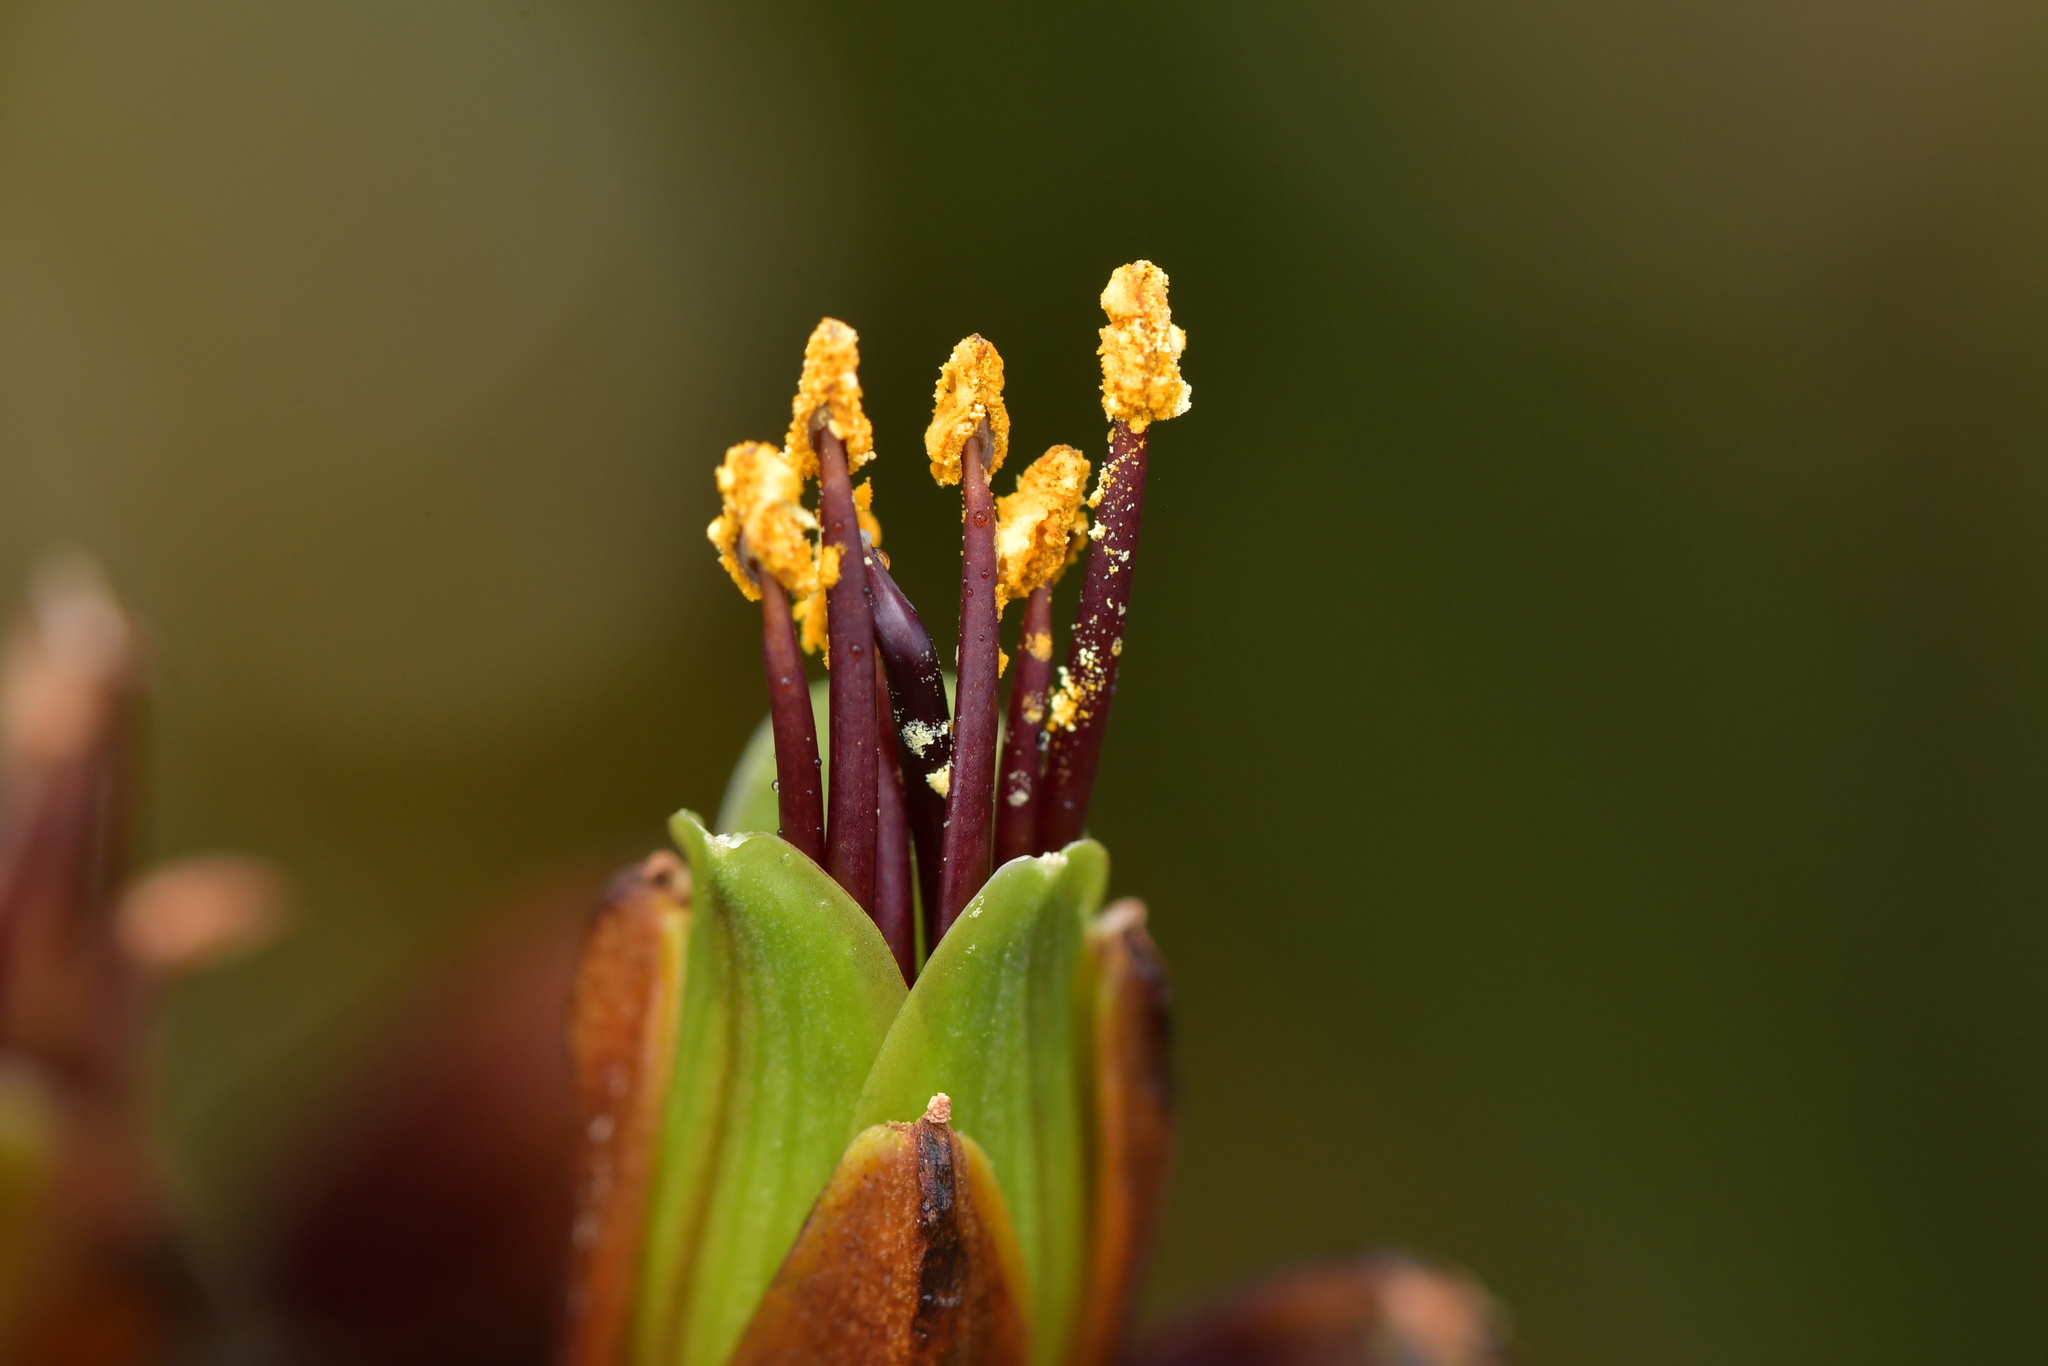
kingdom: Plantae
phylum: Tracheophyta
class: Liliopsida
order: Asparagales
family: Asphodelaceae
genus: Phormium
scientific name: Phormium colensoi
